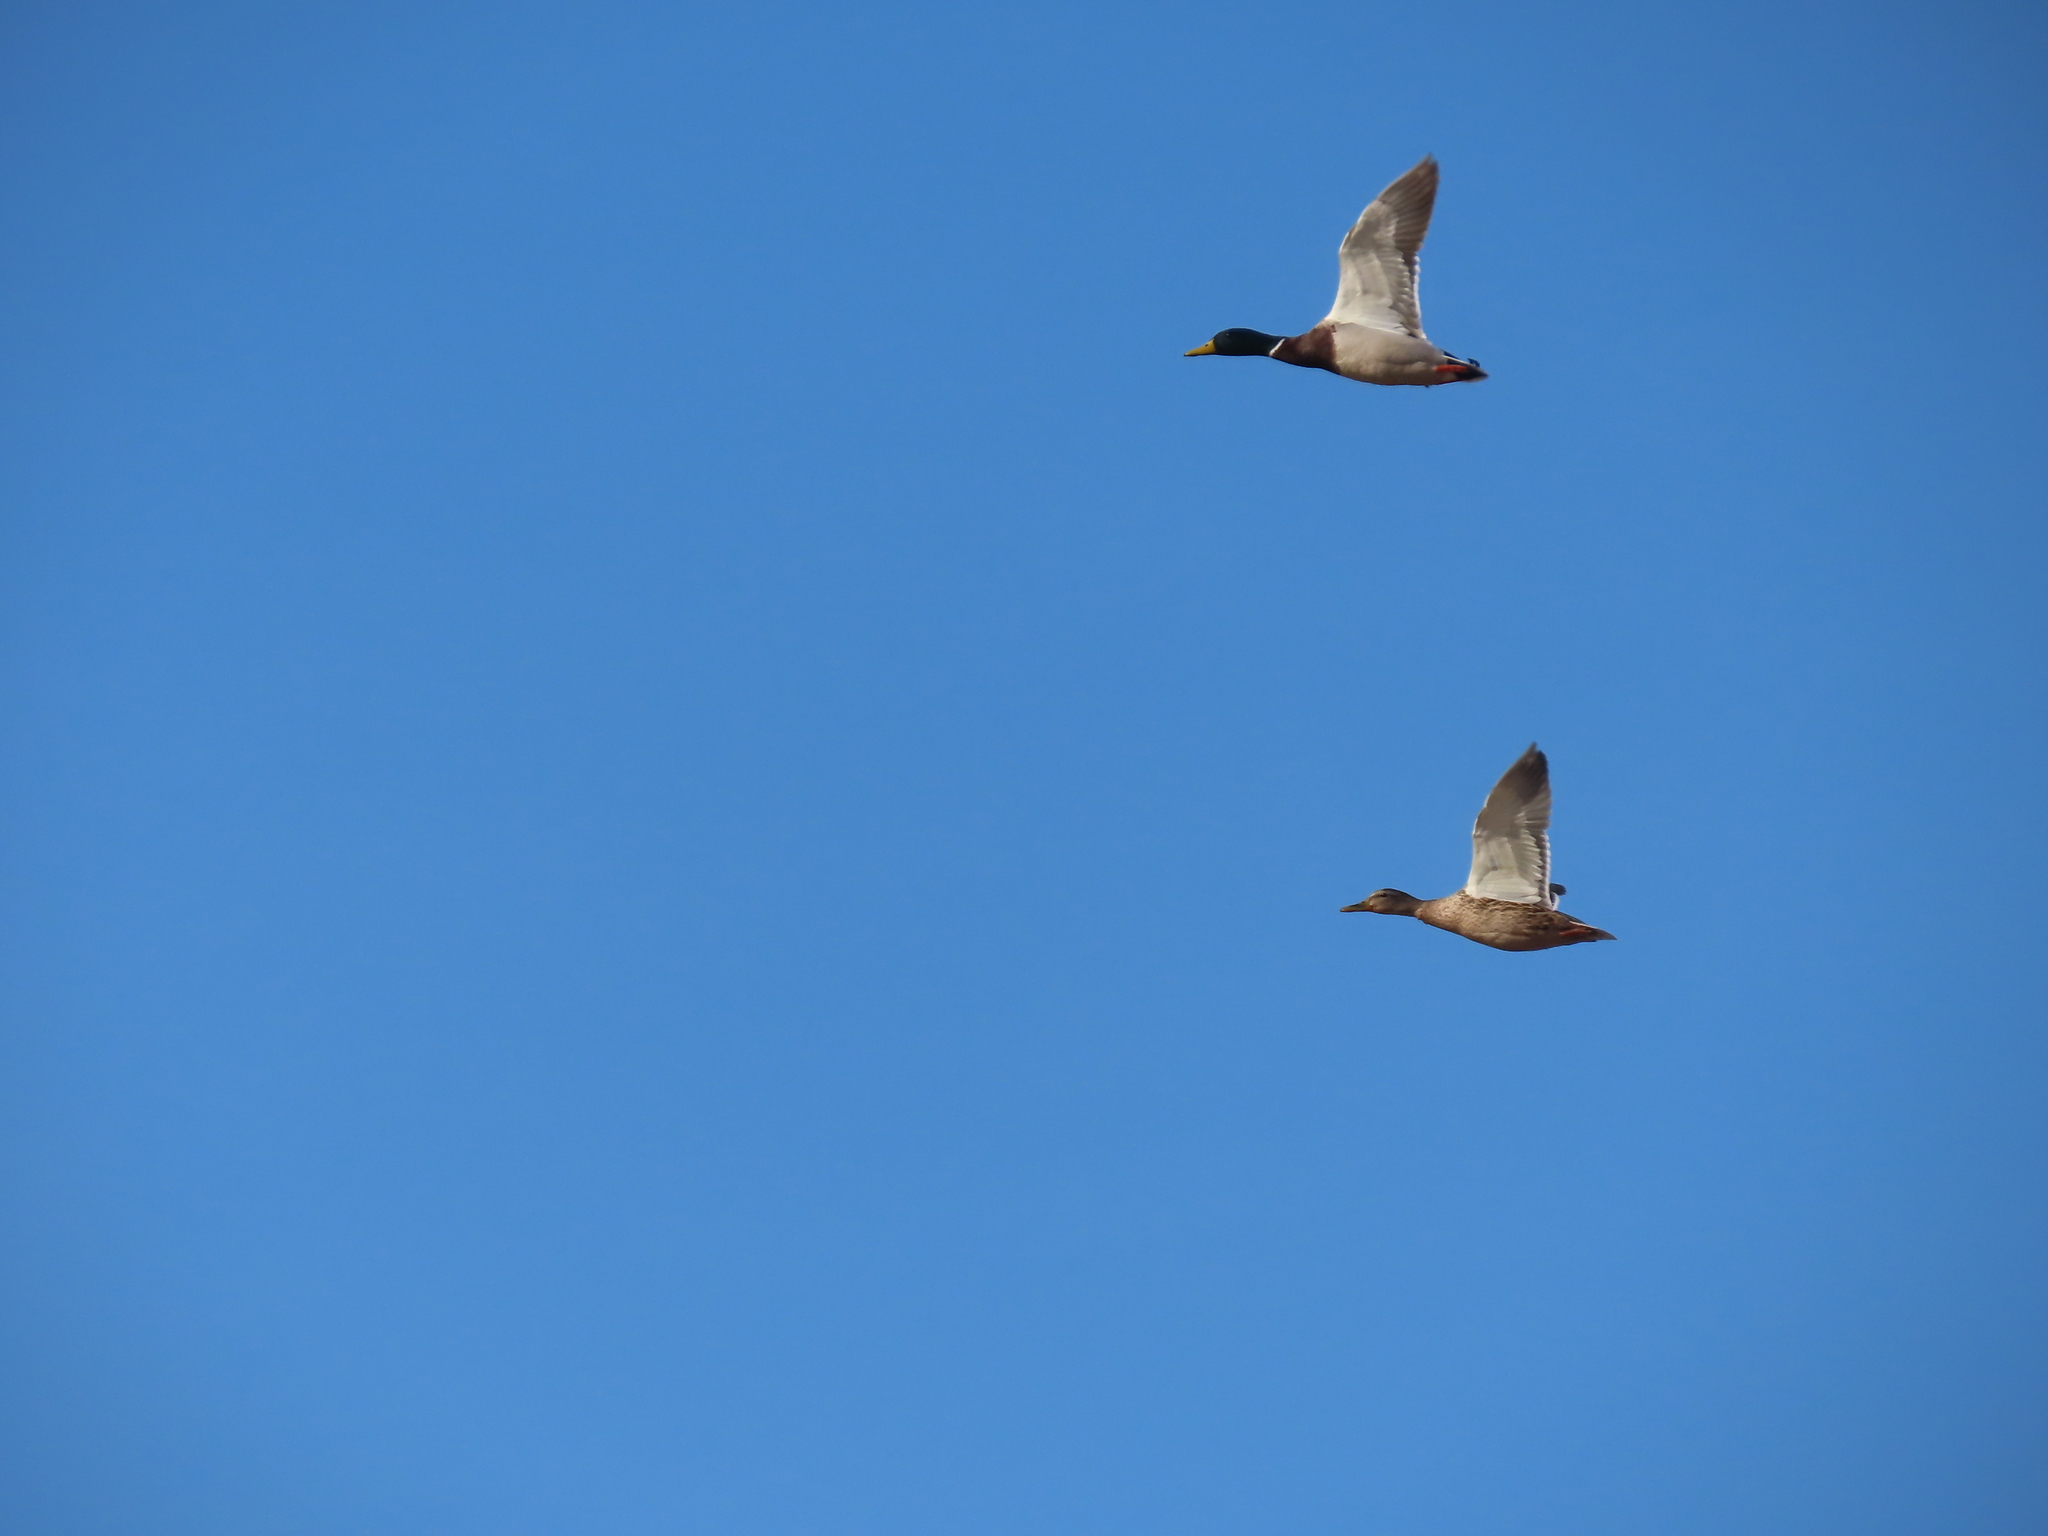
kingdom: Animalia
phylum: Chordata
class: Aves
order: Anseriformes
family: Anatidae
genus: Anas
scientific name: Anas platyrhynchos
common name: Mallard
